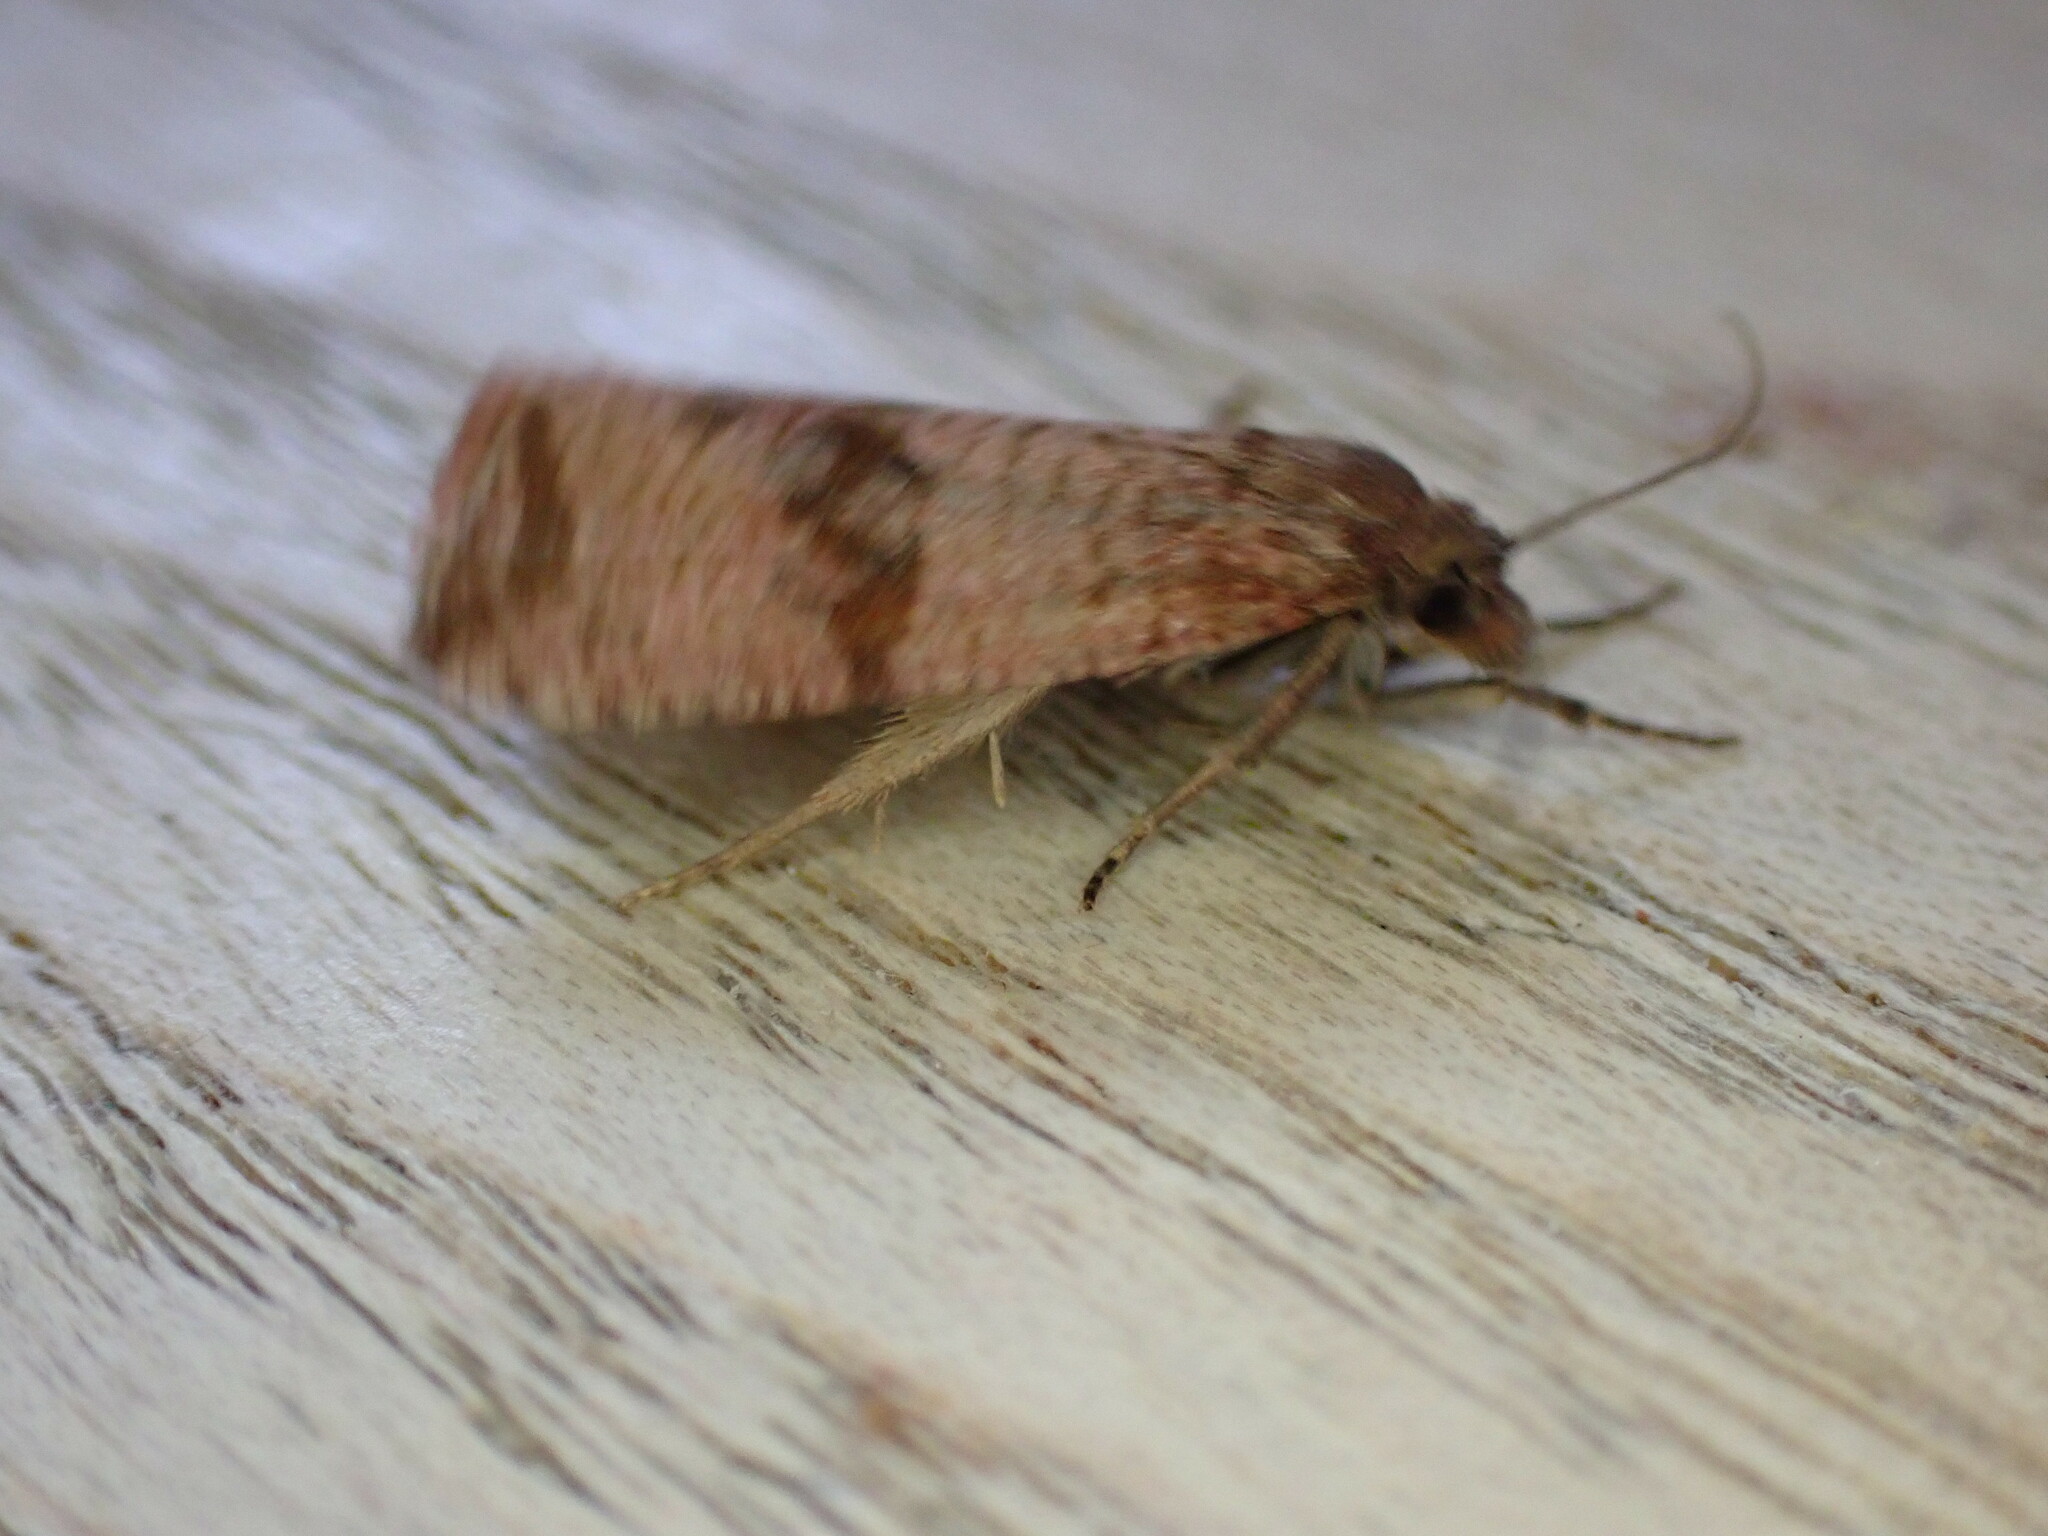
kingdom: Animalia
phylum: Arthropoda
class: Insecta
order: Lepidoptera
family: Tortricidae
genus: Celypha
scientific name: Celypha striana
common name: Barred marble
